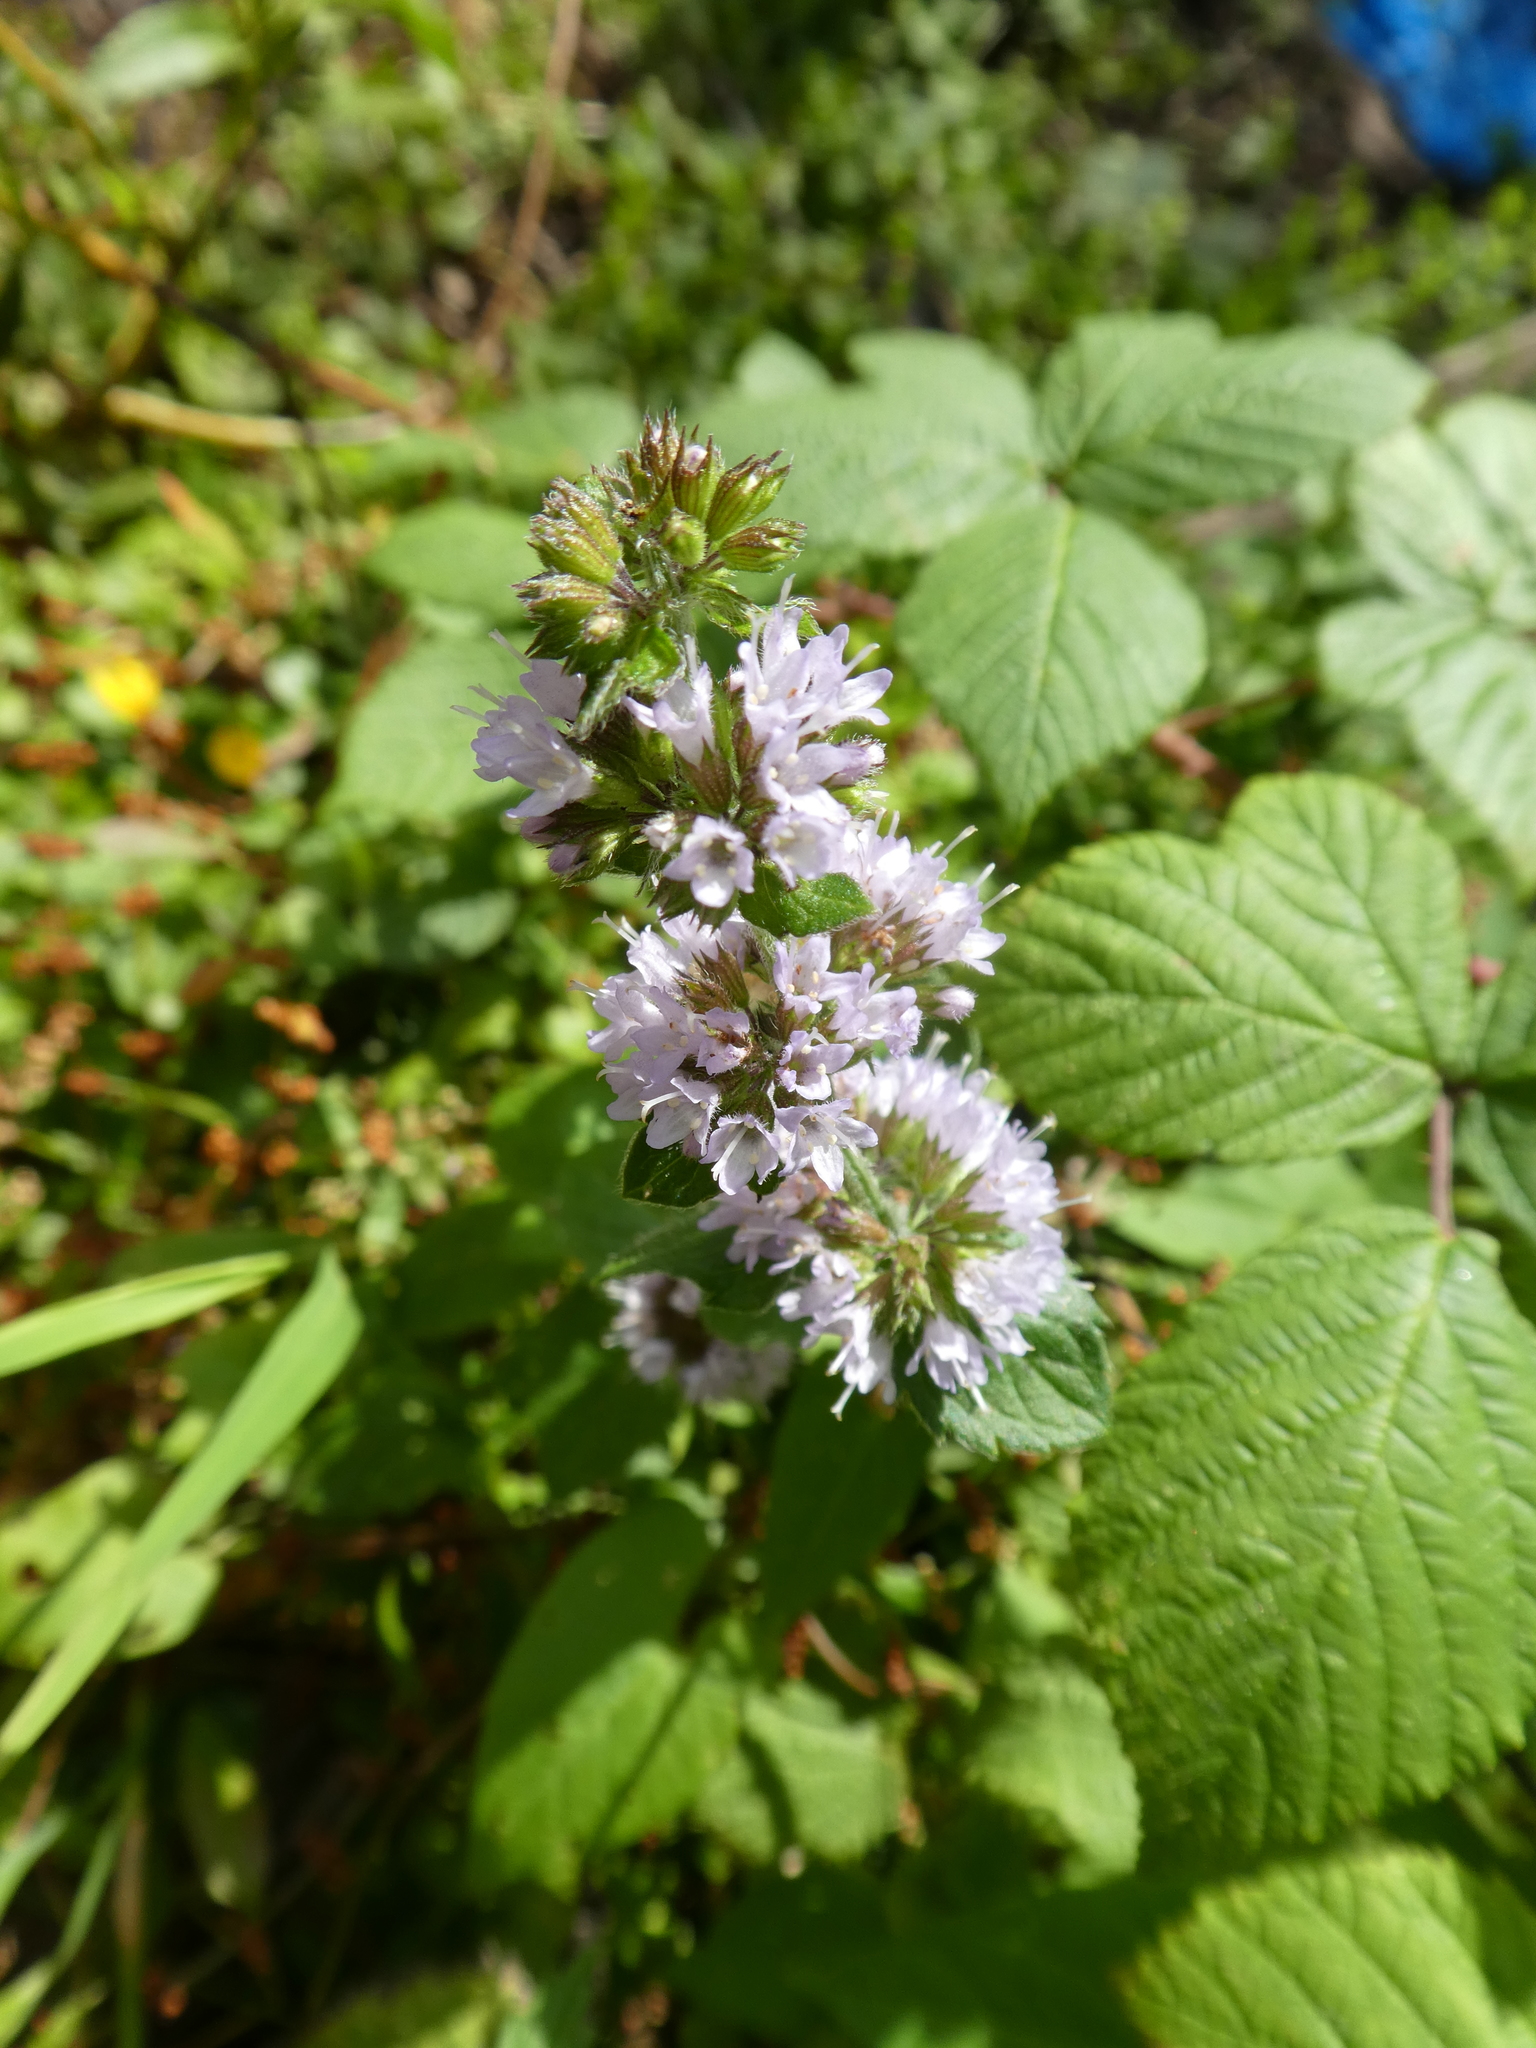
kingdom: Plantae
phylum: Tracheophyta
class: Magnoliopsida
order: Lamiales
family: Lamiaceae
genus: Mentha
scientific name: Mentha aquatica
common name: Water mint
